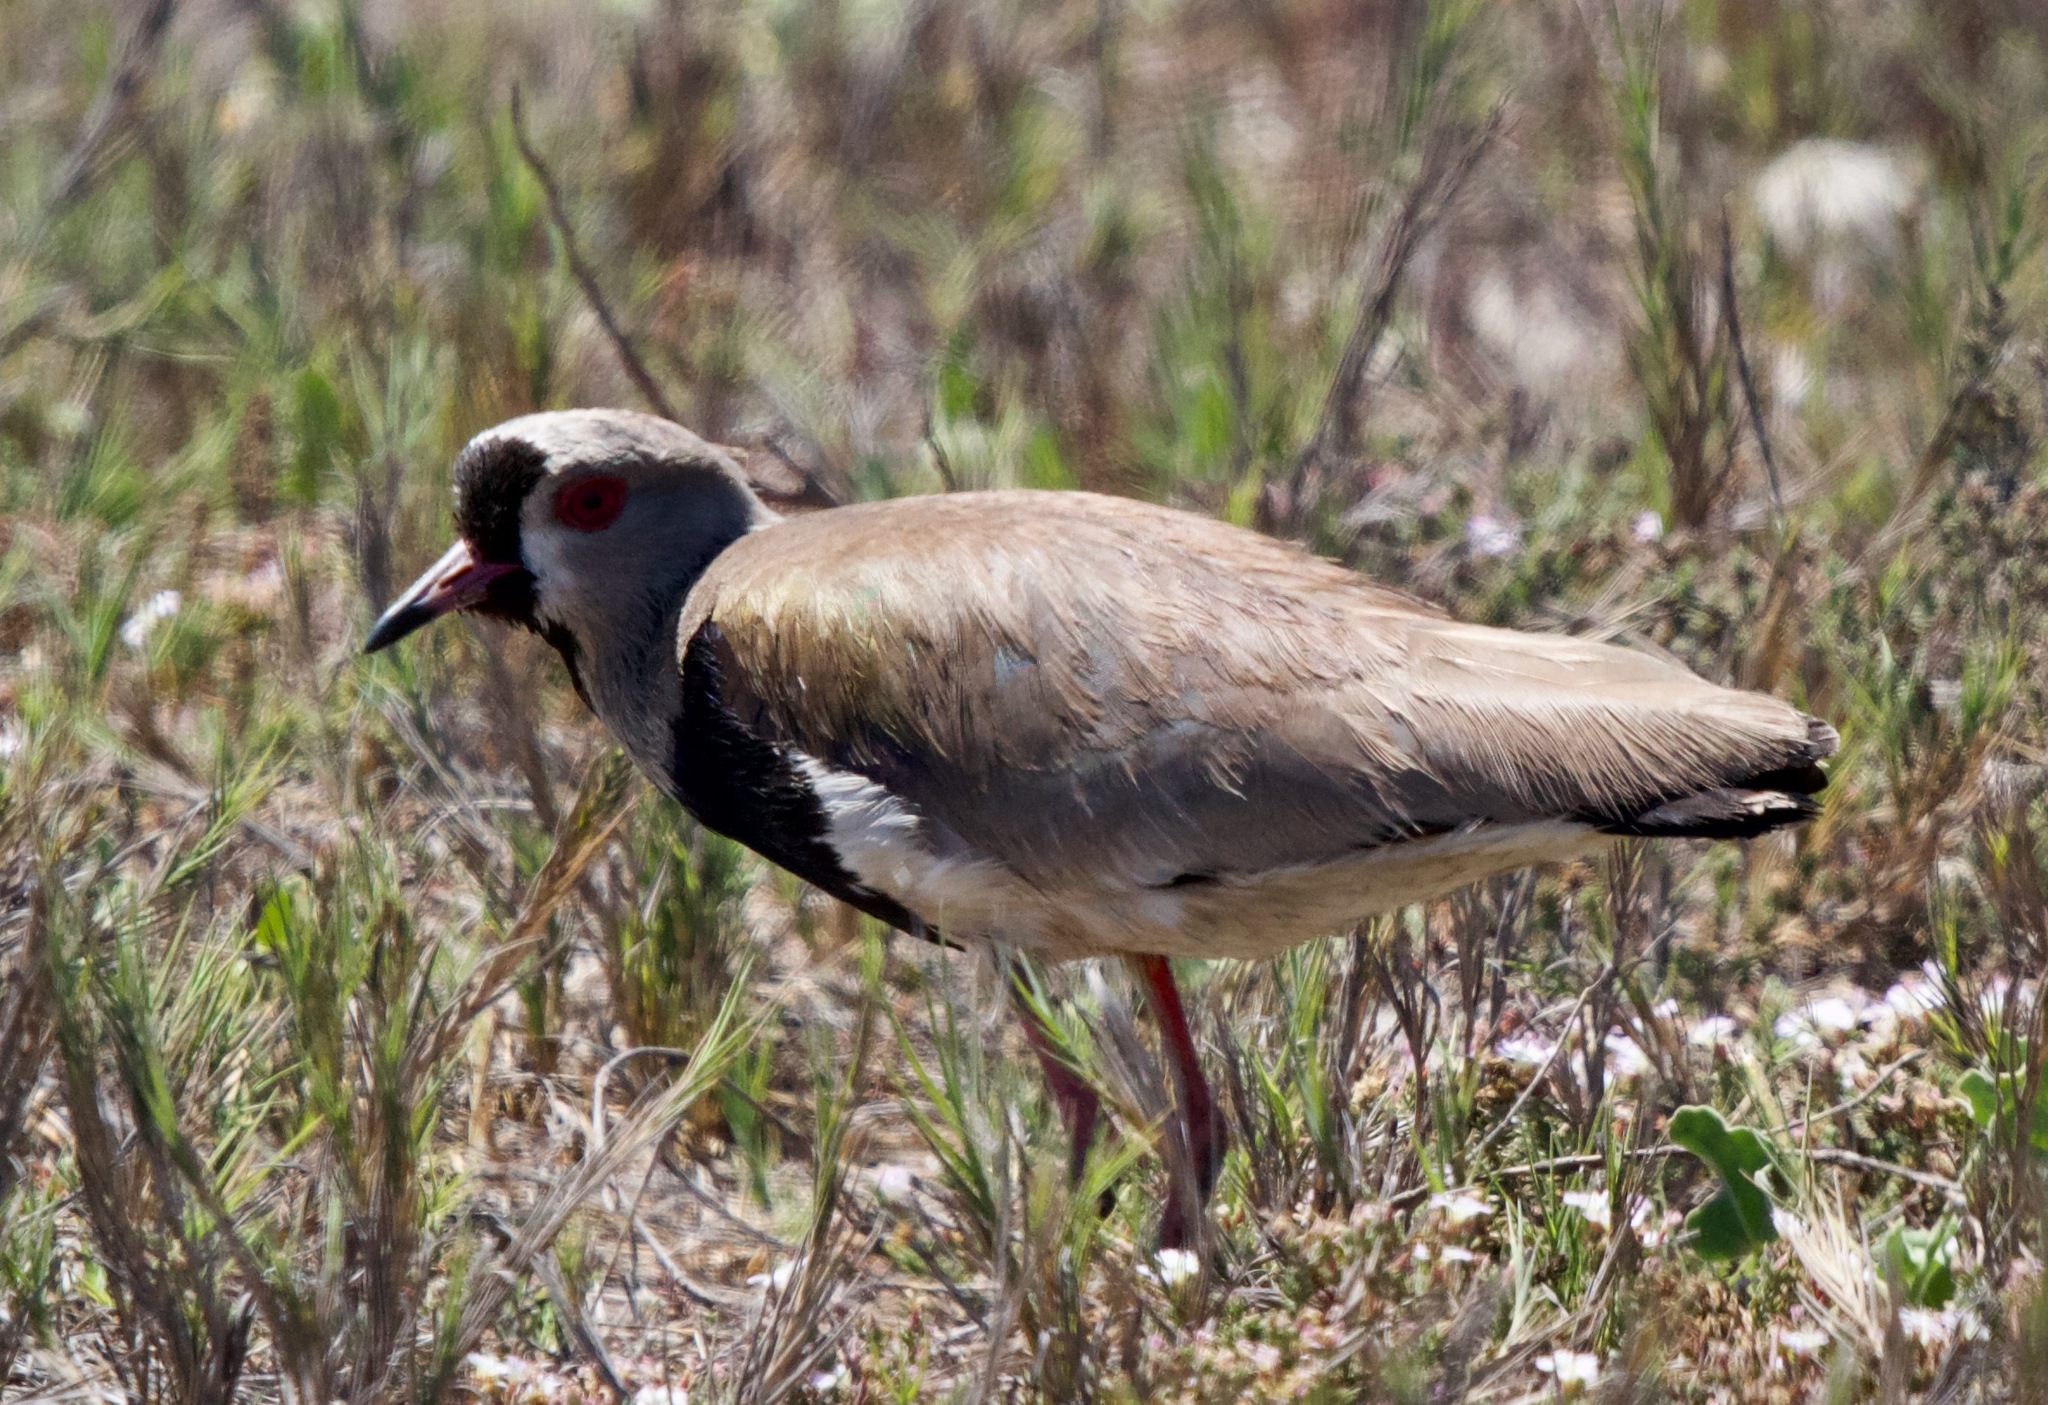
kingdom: Animalia
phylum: Chordata
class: Aves
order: Charadriiformes
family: Charadriidae
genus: Vanellus
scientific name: Vanellus chilensis
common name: Southern lapwing
